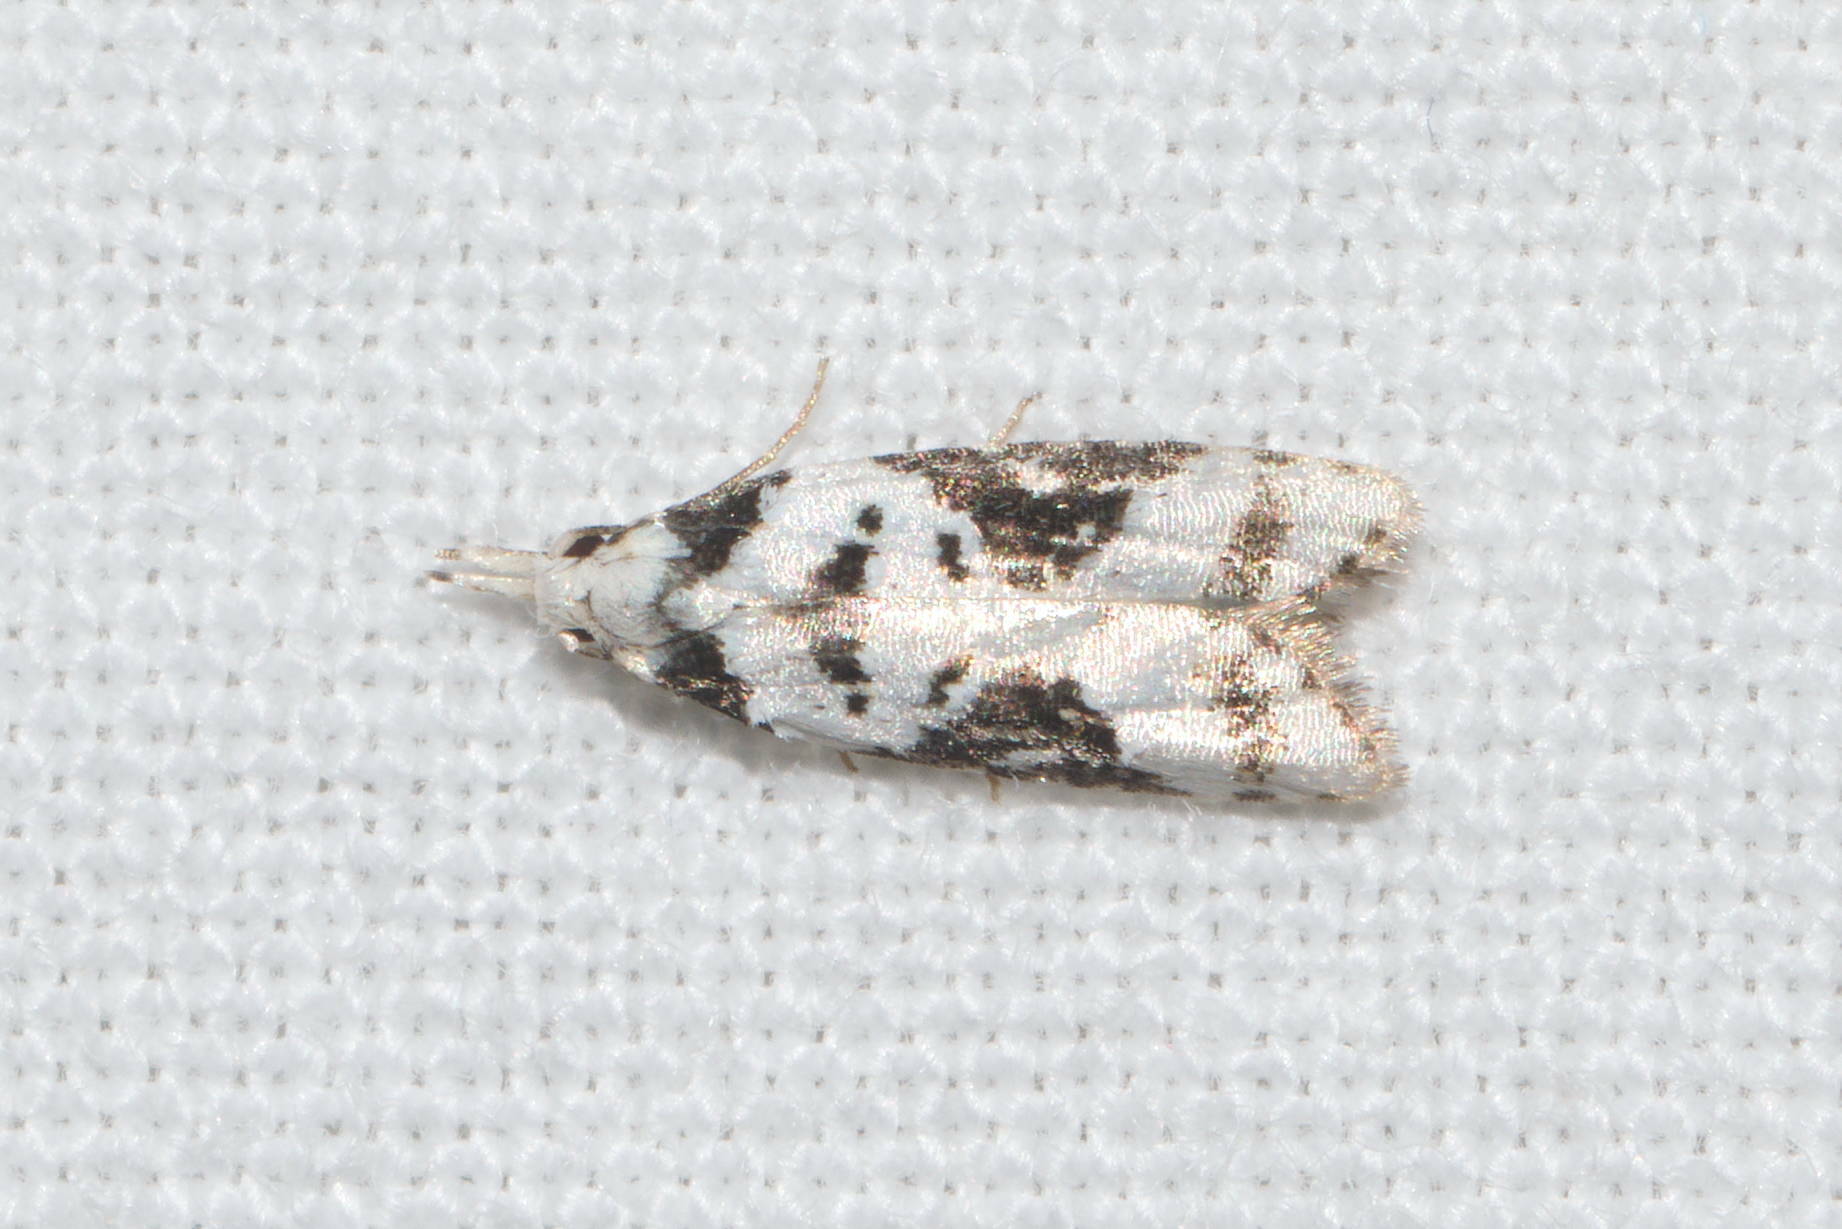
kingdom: Animalia
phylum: Arthropoda
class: Insecta
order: Lepidoptera
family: Carposinidae
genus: Carposina
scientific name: Carposina inscripta
